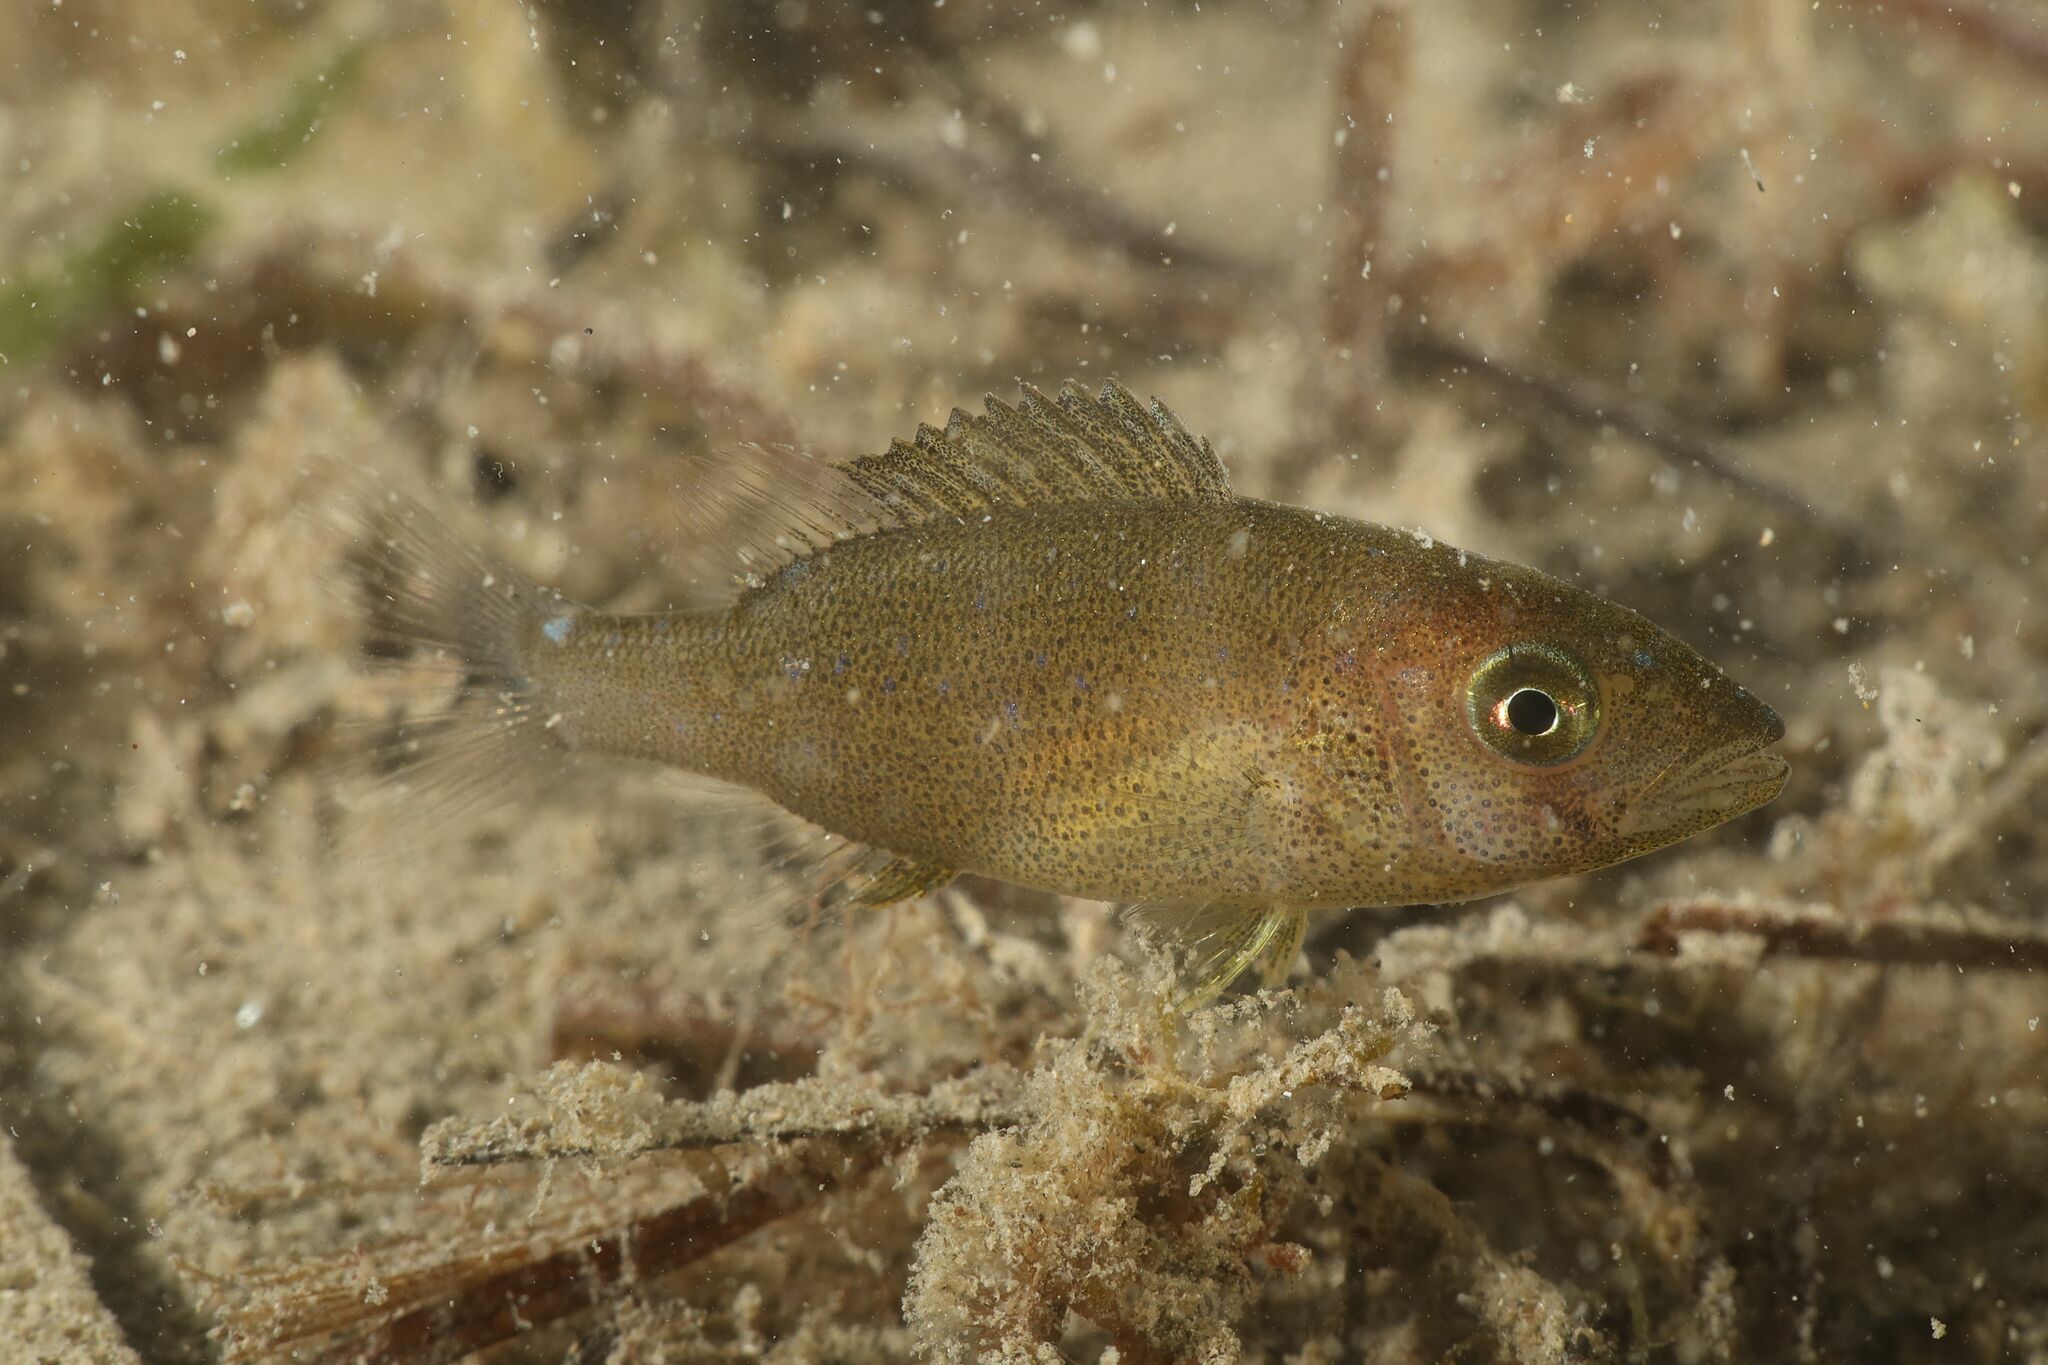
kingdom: Animalia
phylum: Chordata
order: Perciformes
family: Sparidae
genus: Dentex
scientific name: Dentex dentex
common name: Dentex
